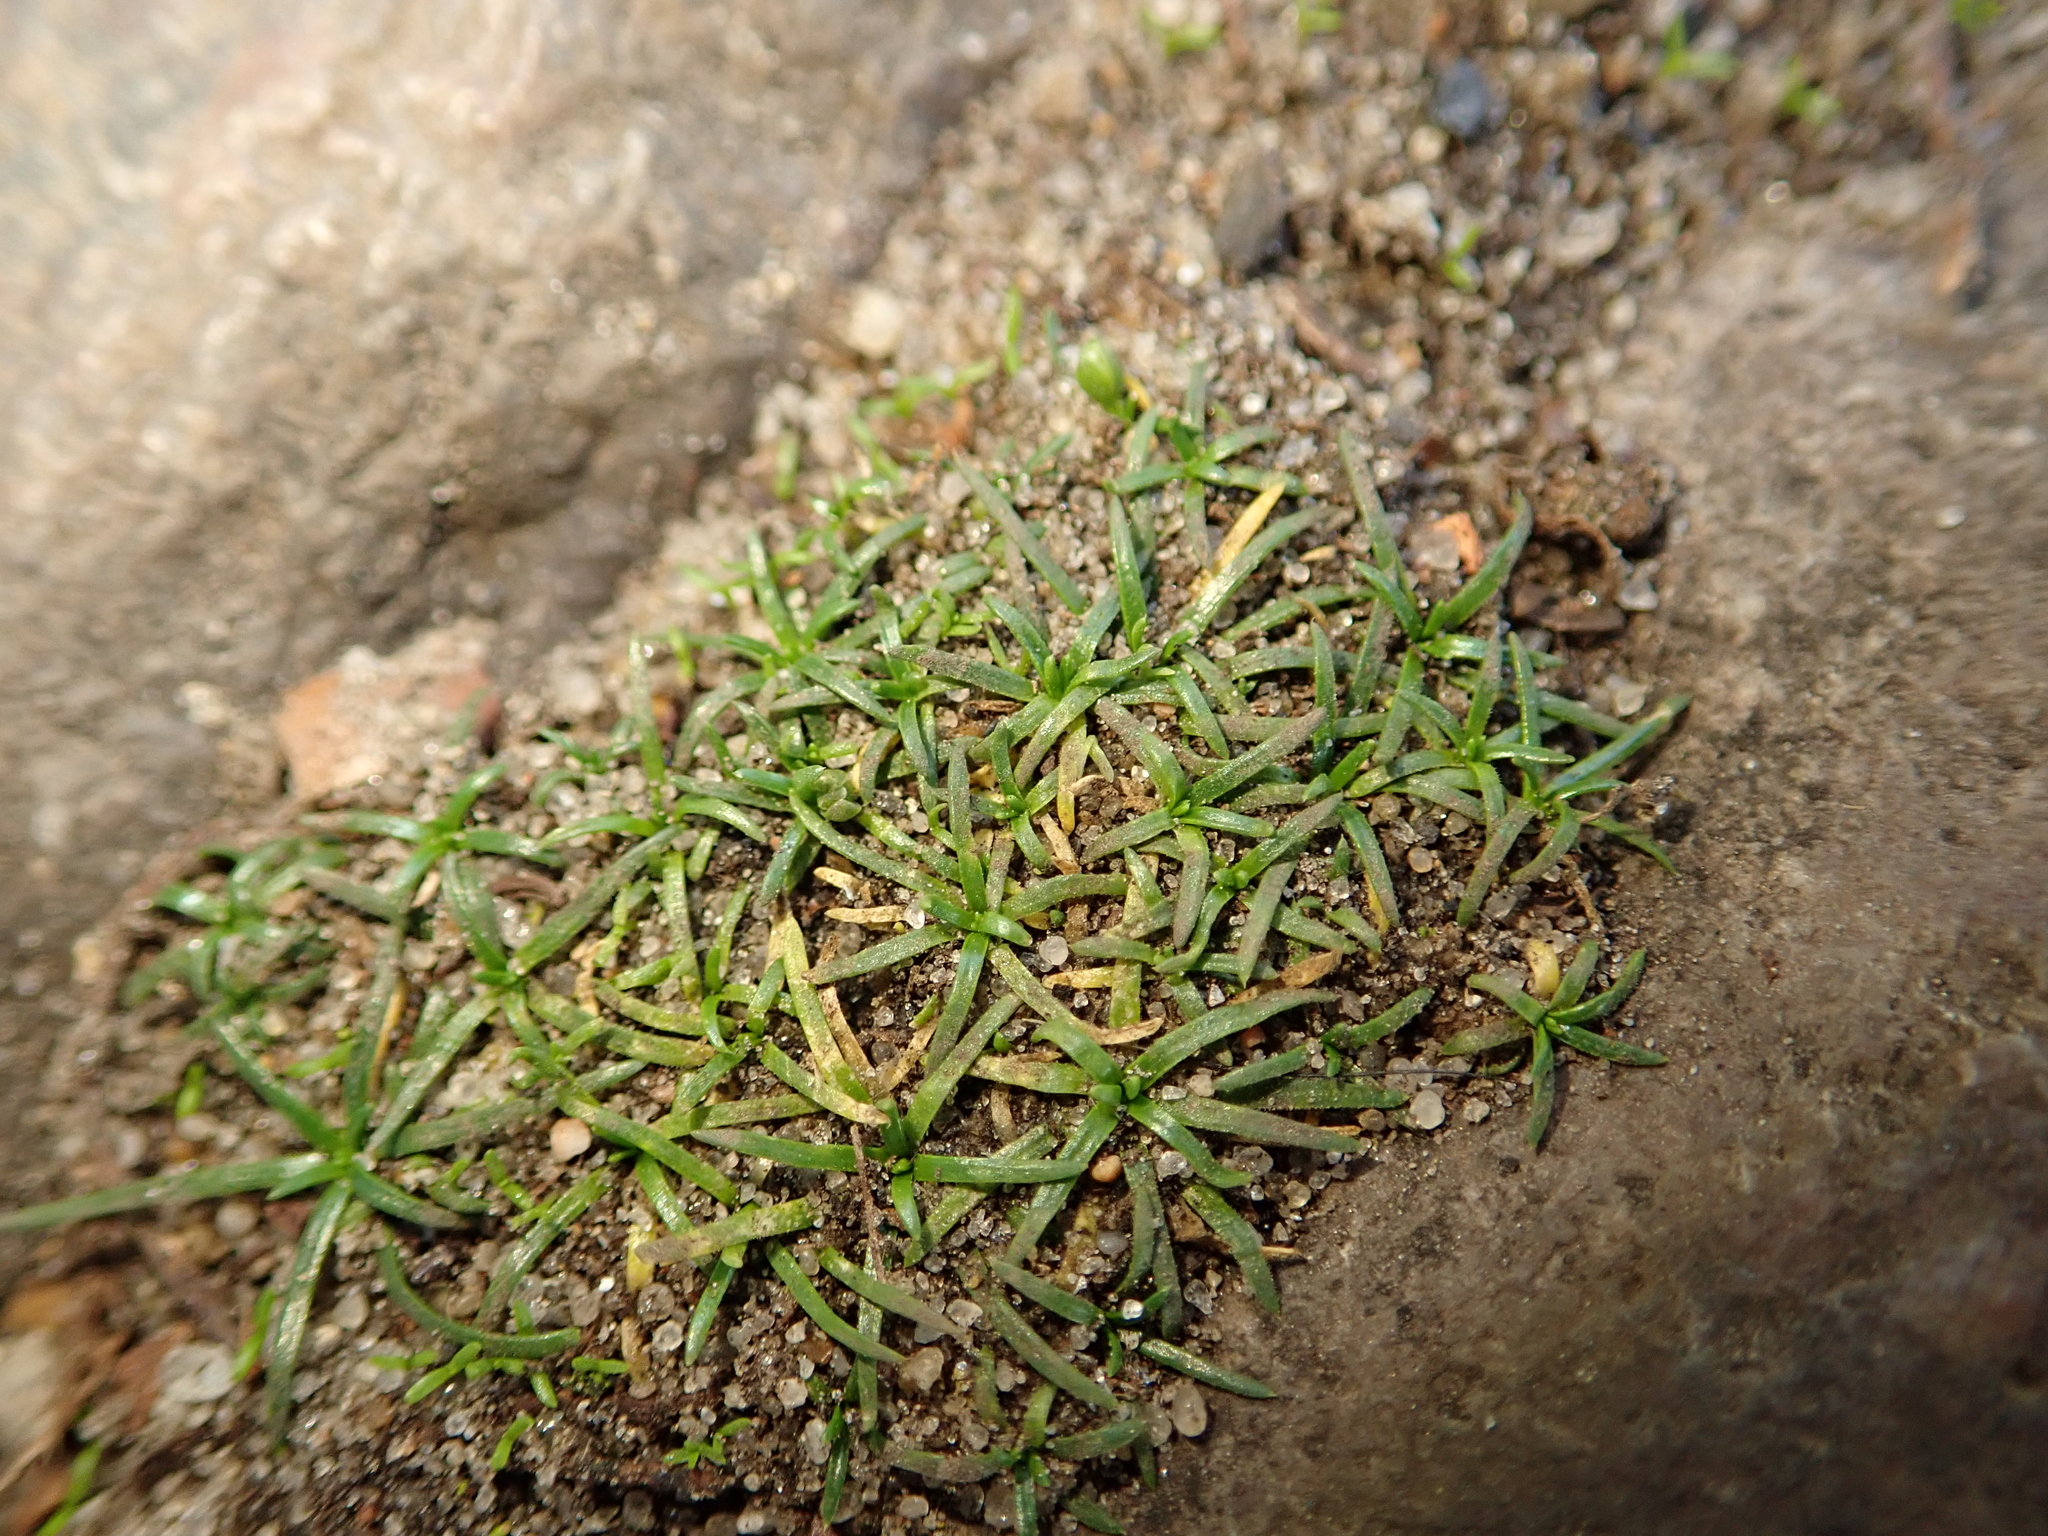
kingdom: Plantae
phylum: Tracheophyta
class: Magnoliopsida
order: Caryophyllales
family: Caryophyllaceae
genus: Sagina
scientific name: Sagina procumbens
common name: Procumbent pearlwort
